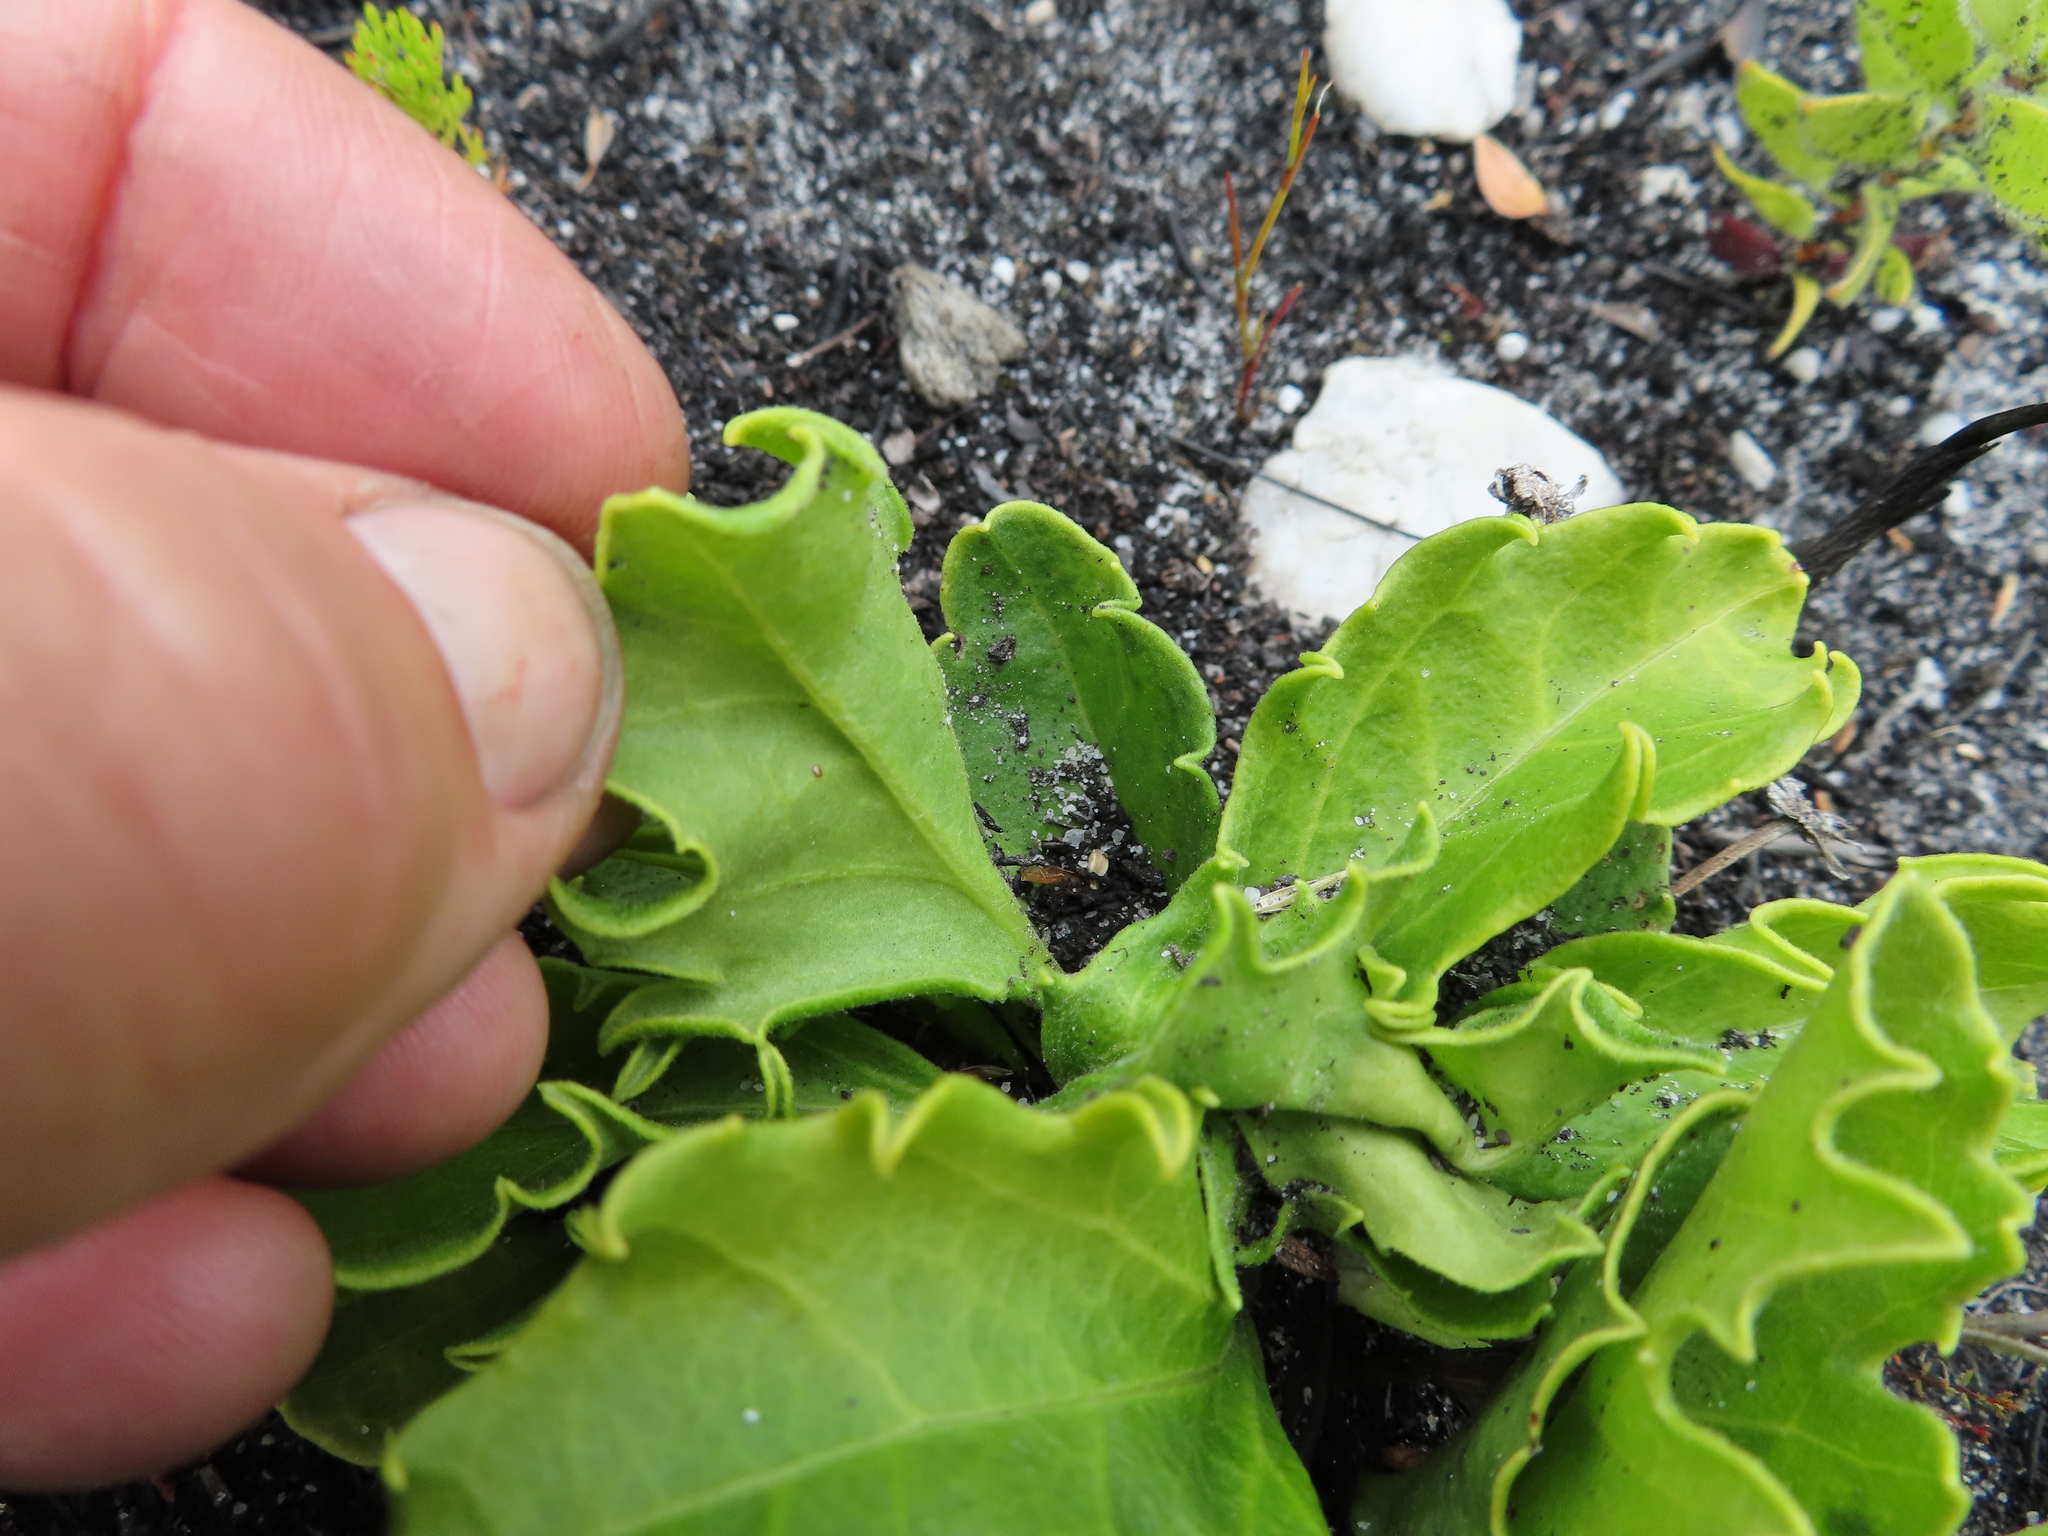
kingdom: Plantae
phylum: Tracheophyta
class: Magnoliopsida
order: Asterales
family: Asteraceae
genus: Mairia
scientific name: Mairia petiolata
